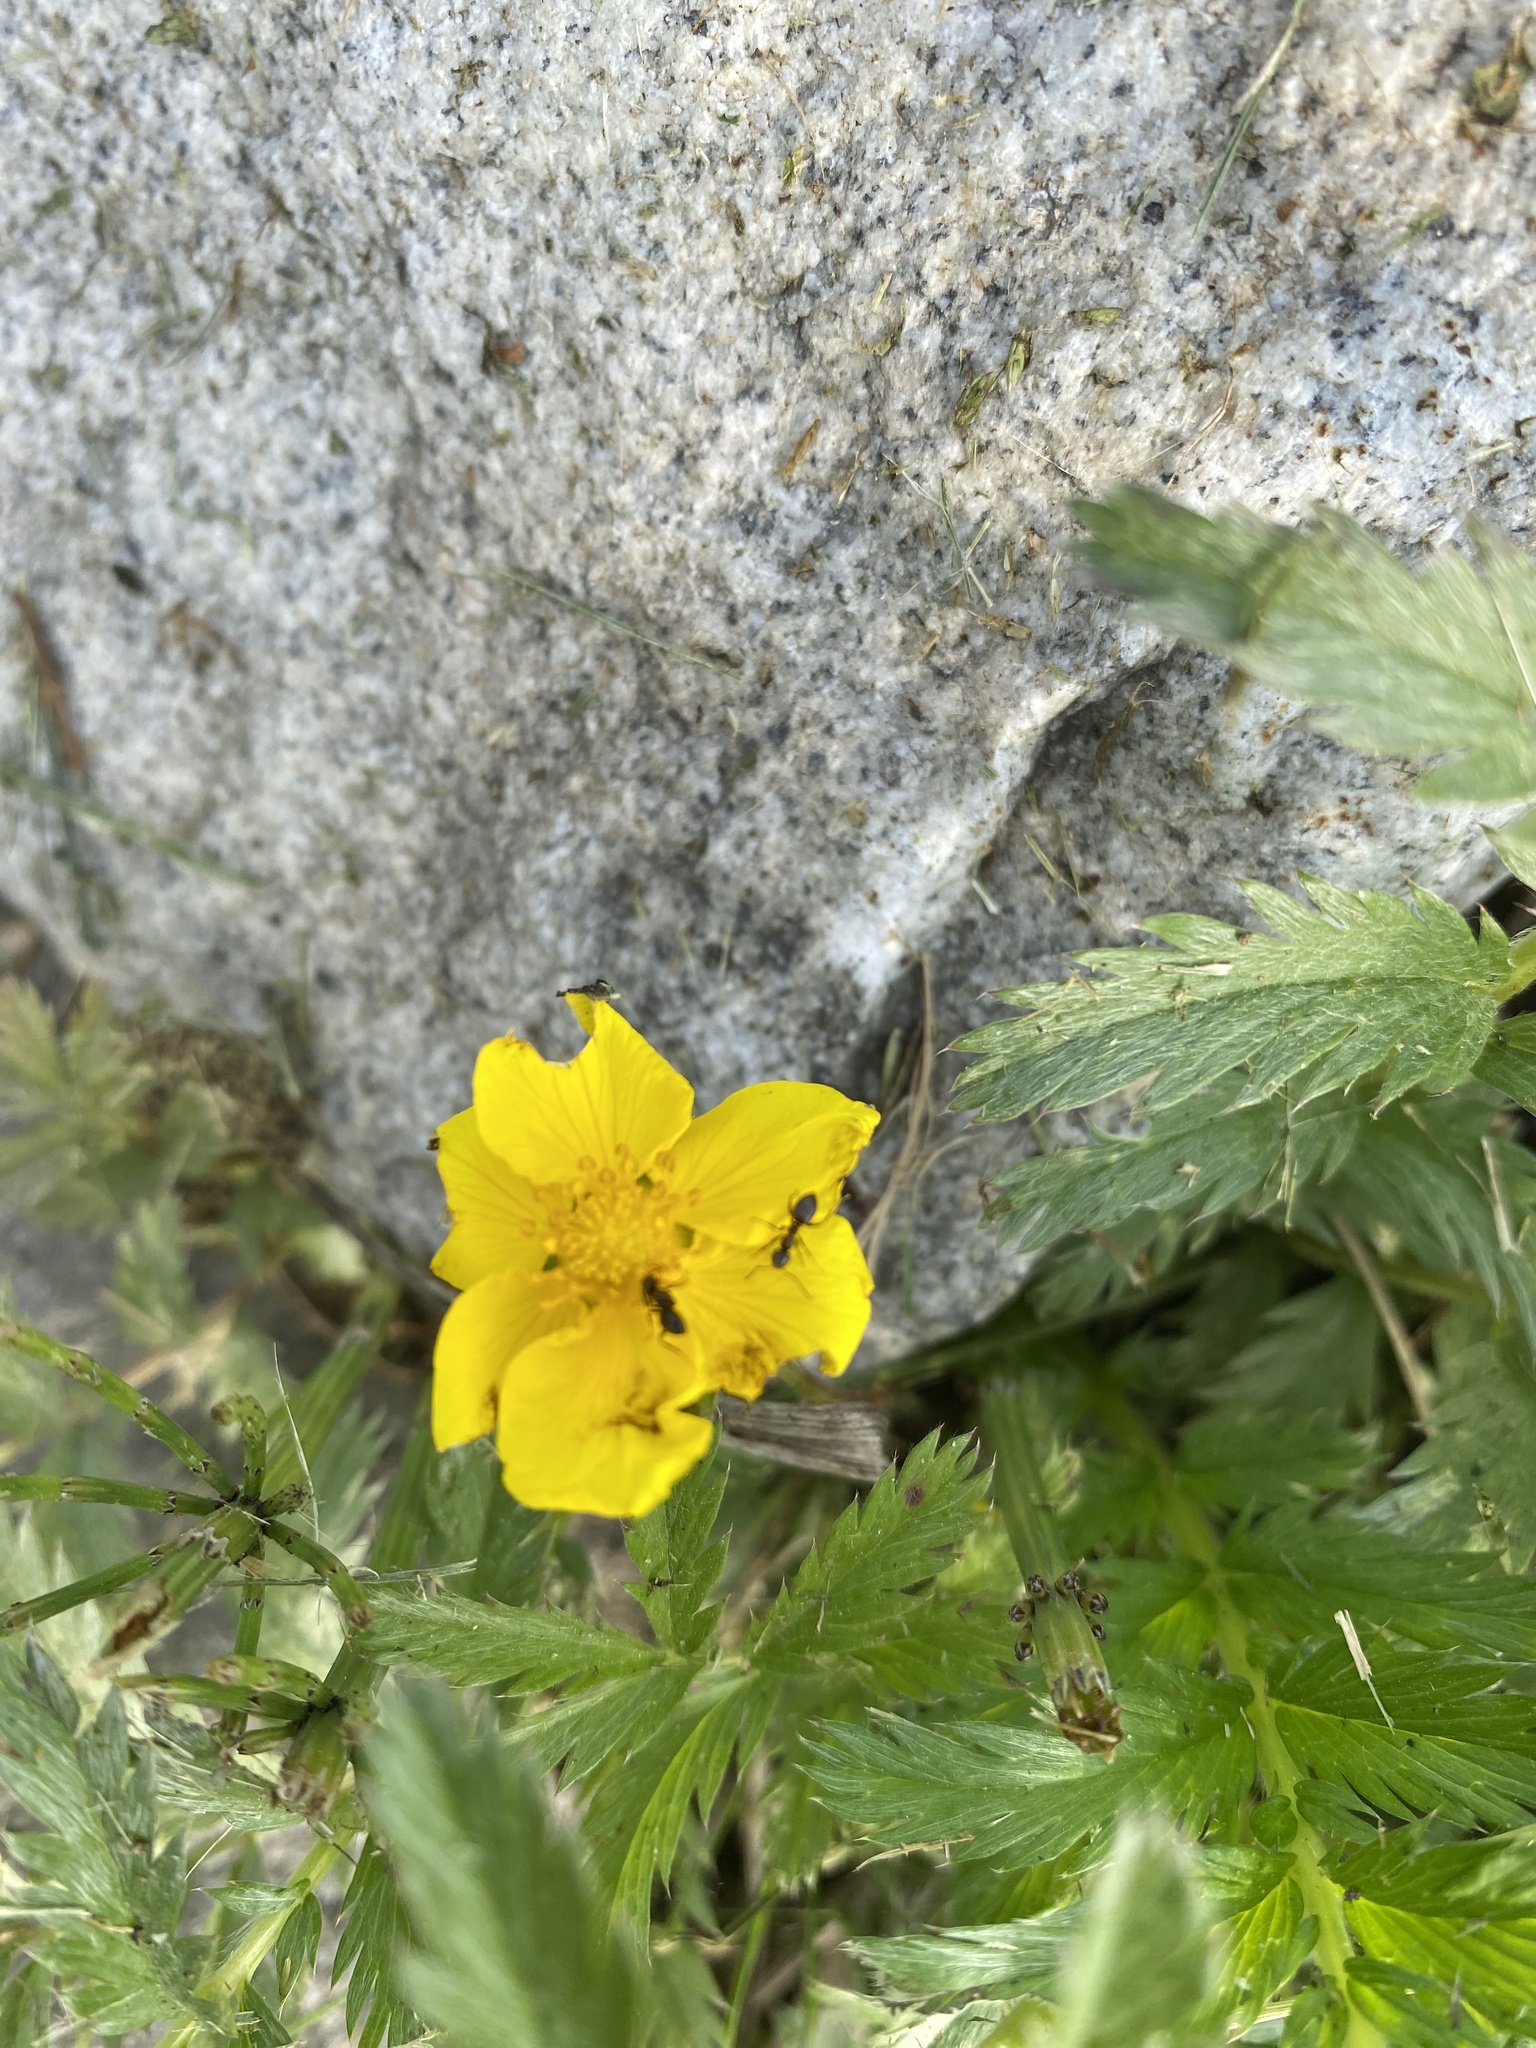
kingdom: Plantae
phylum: Tracheophyta
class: Magnoliopsida
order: Rosales
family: Rosaceae
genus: Argentina
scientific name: Argentina anserina
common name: Common silverweed
